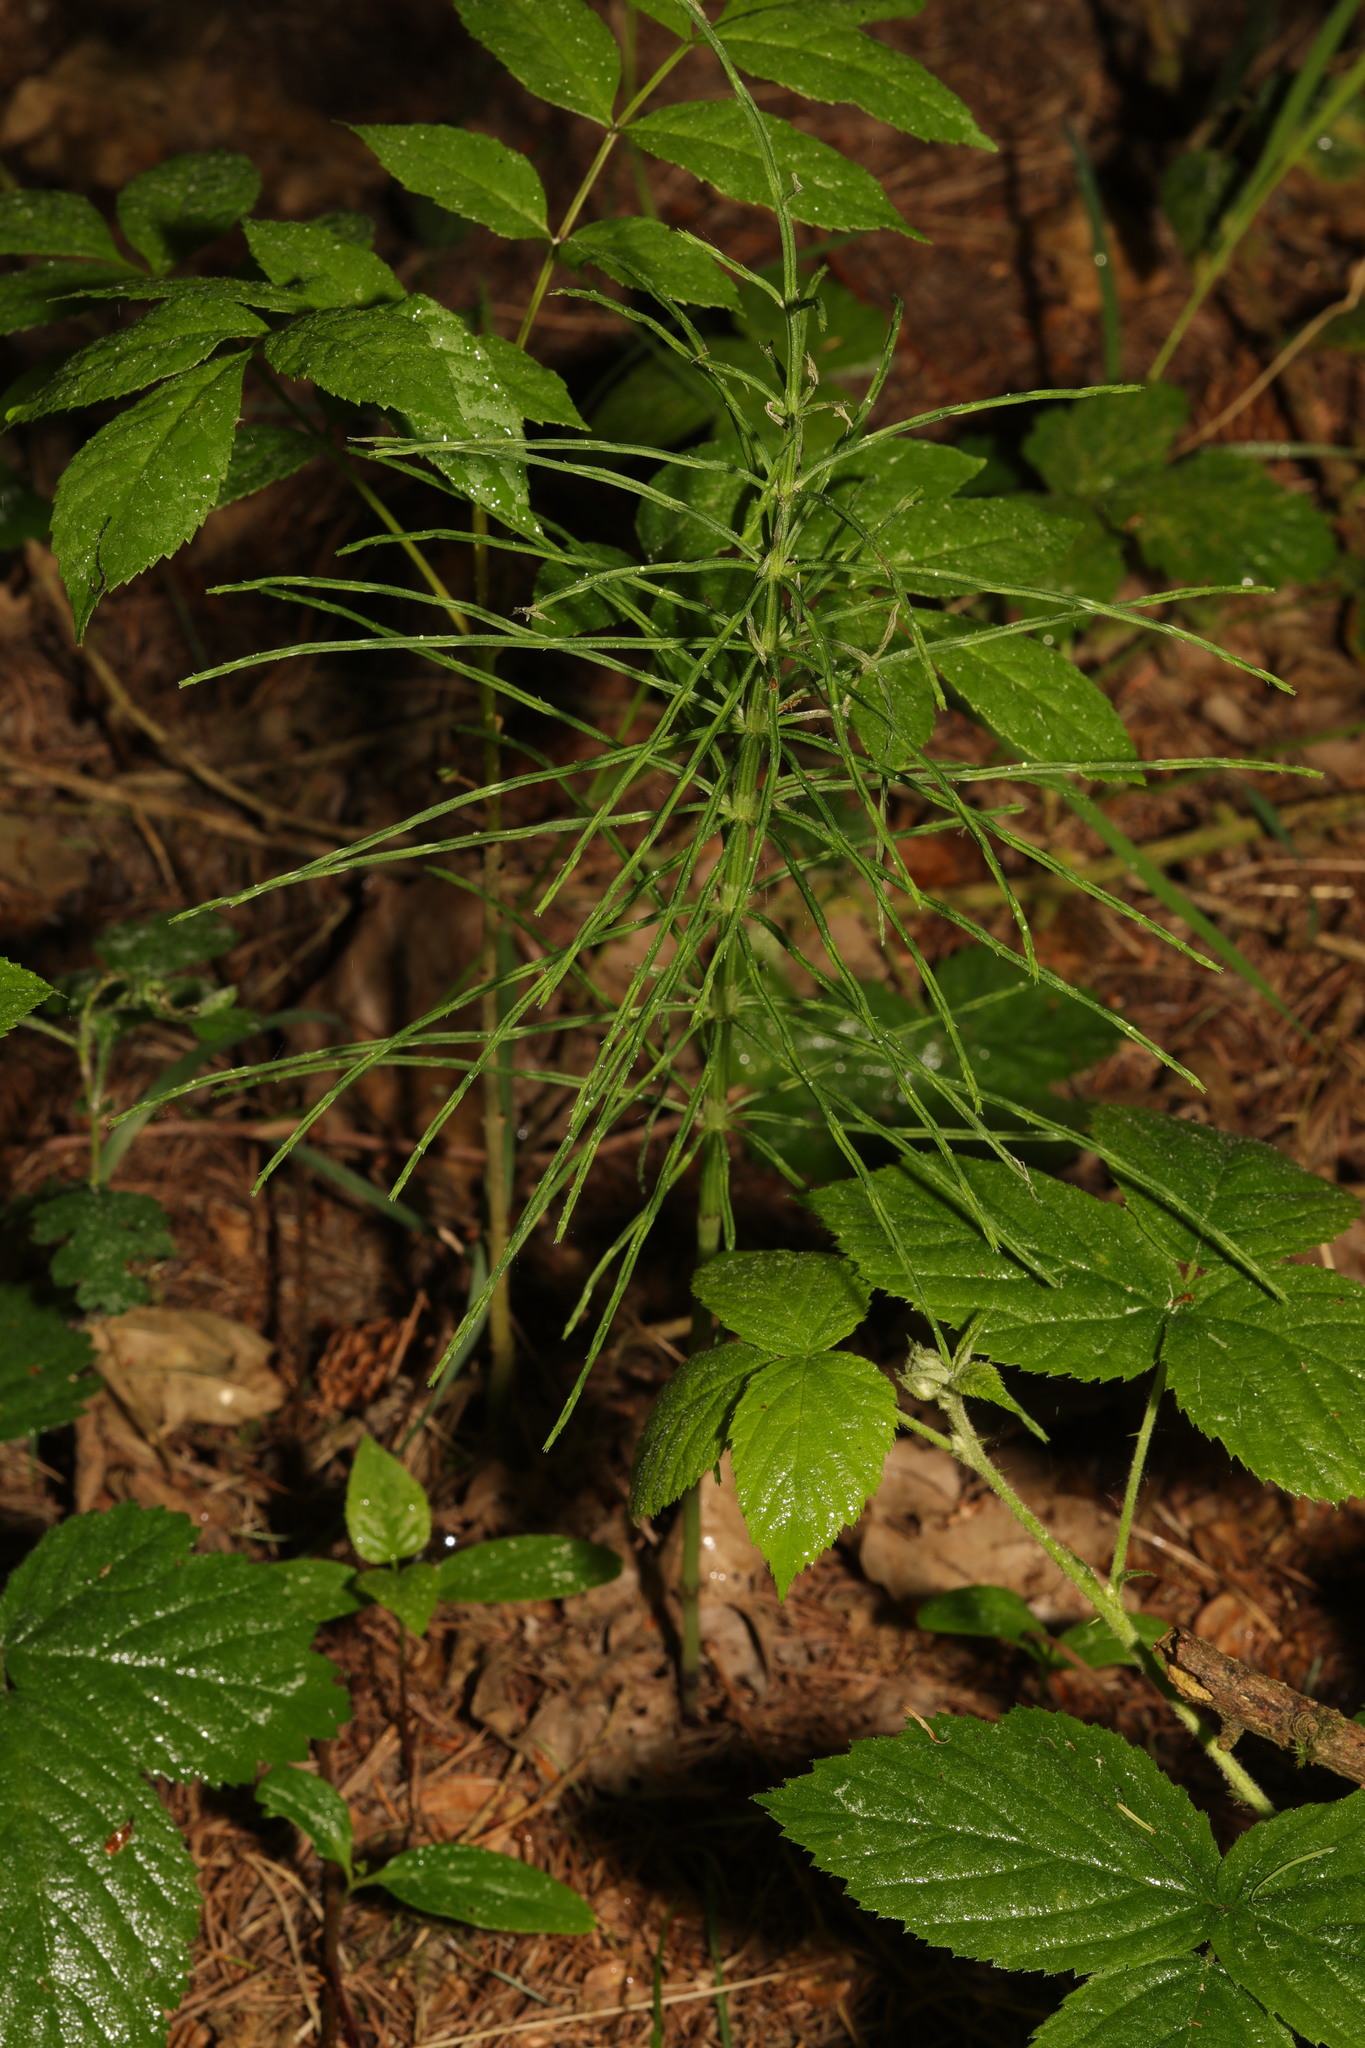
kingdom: Plantae
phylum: Tracheophyta
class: Polypodiopsida
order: Equisetales
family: Equisetaceae
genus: Equisetum
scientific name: Equisetum arvense
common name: Field horsetail
